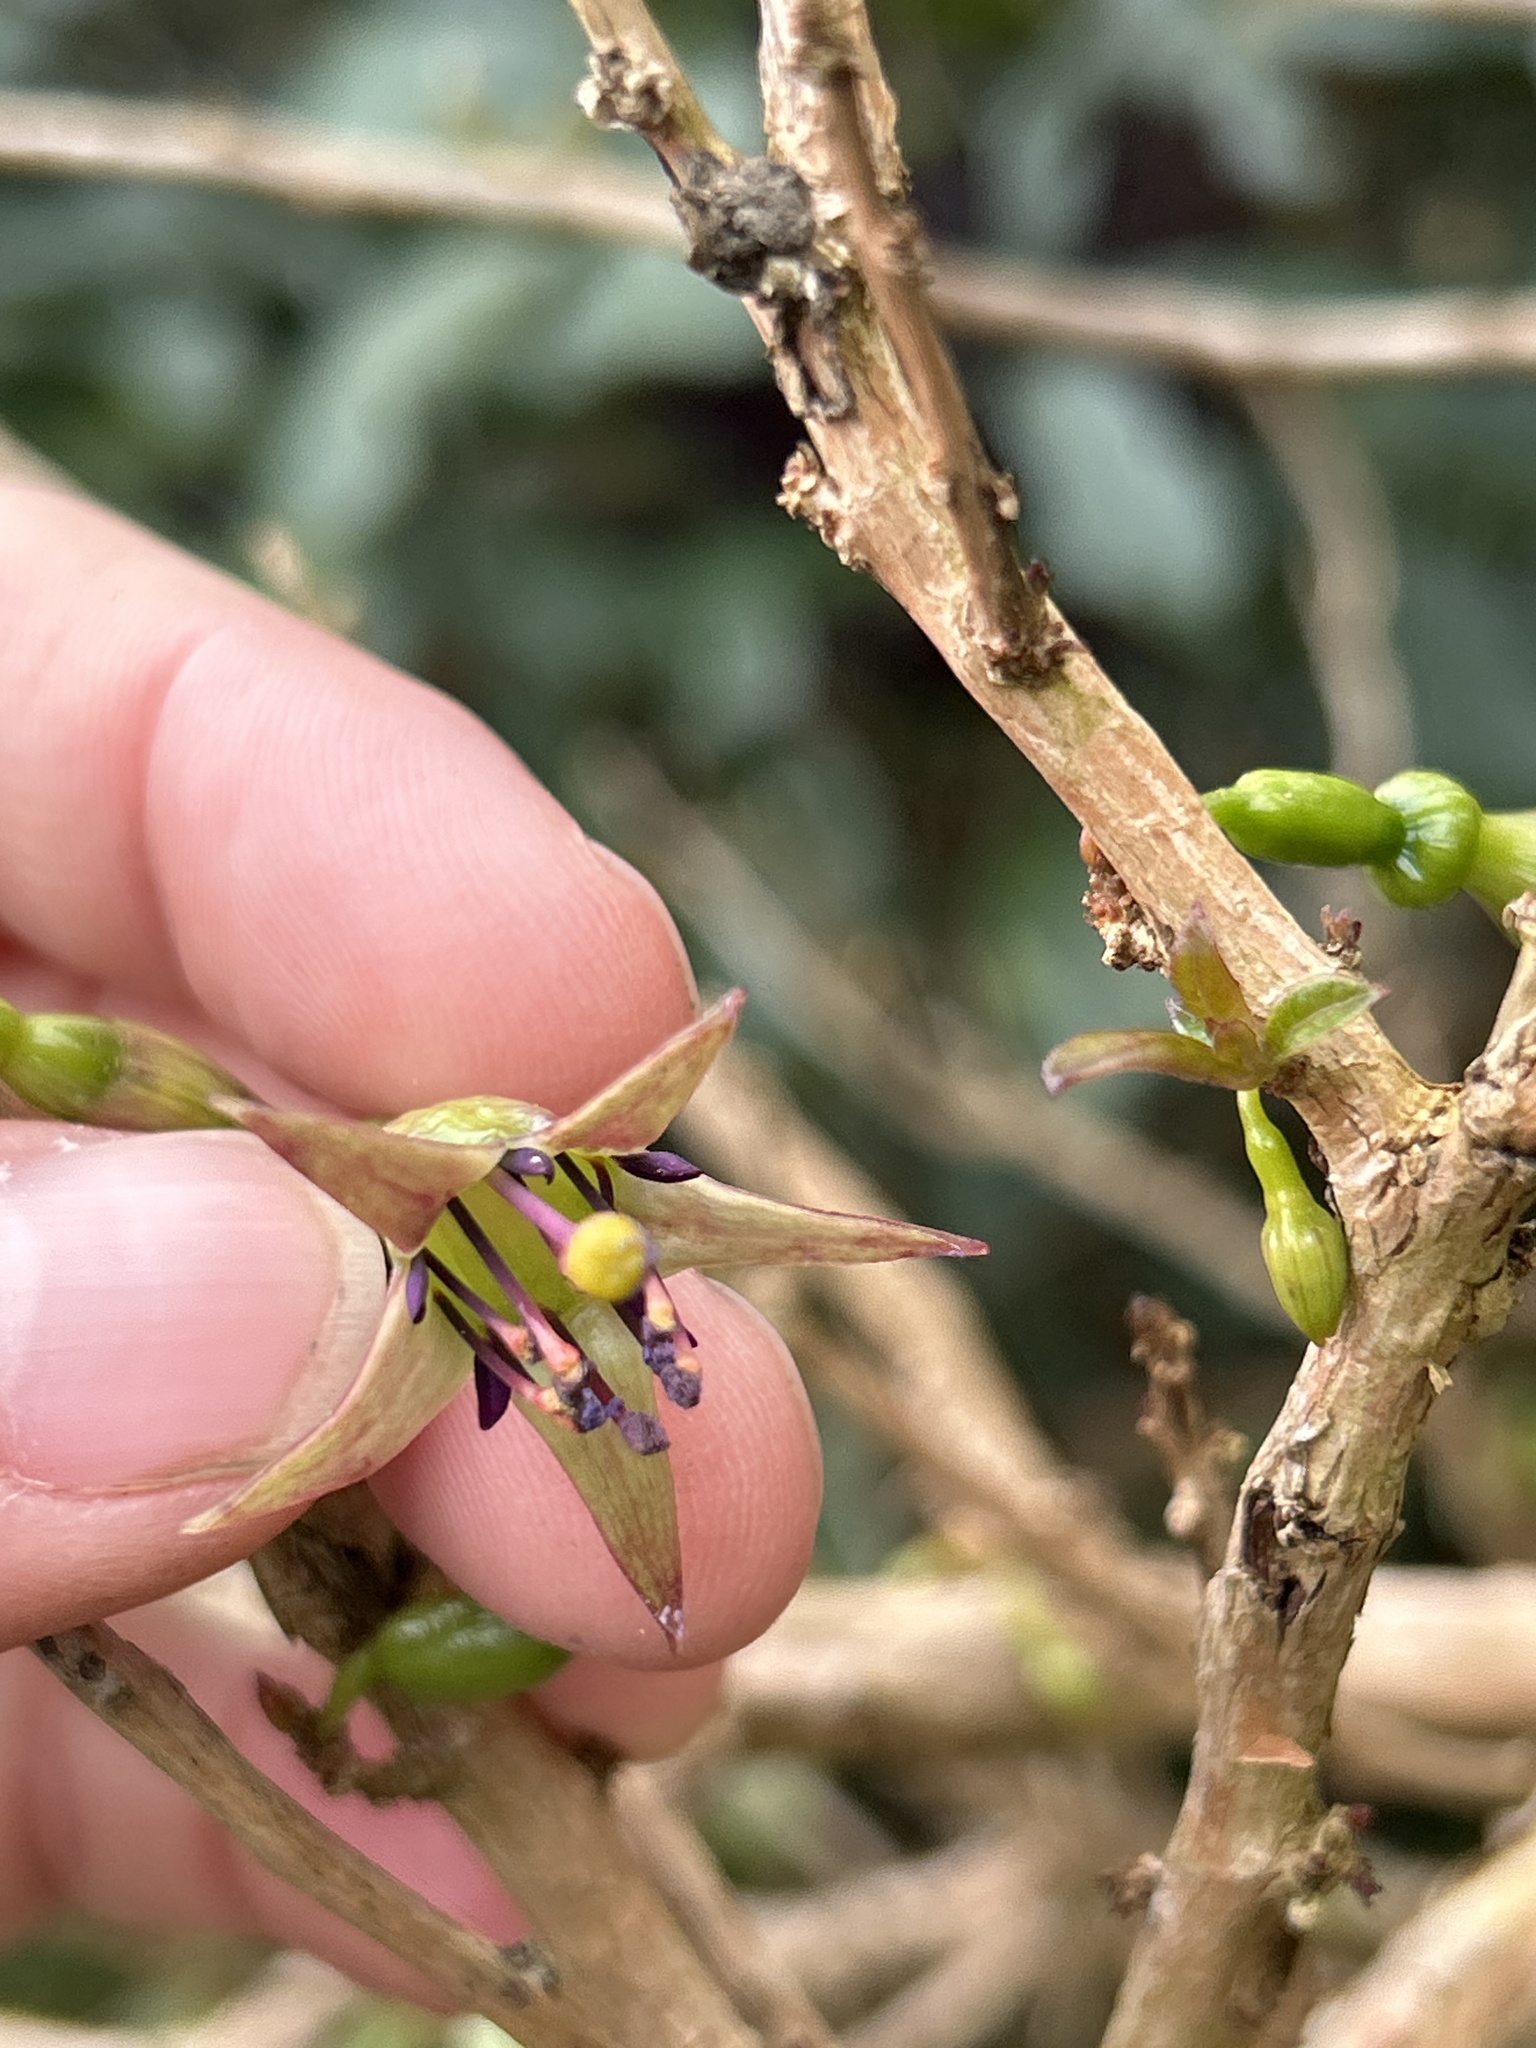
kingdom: Plantae
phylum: Tracheophyta
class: Magnoliopsida
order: Myrtales
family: Onagraceae
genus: Fuchsia
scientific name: Fuchsia excorticata
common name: Tree fuchsia
